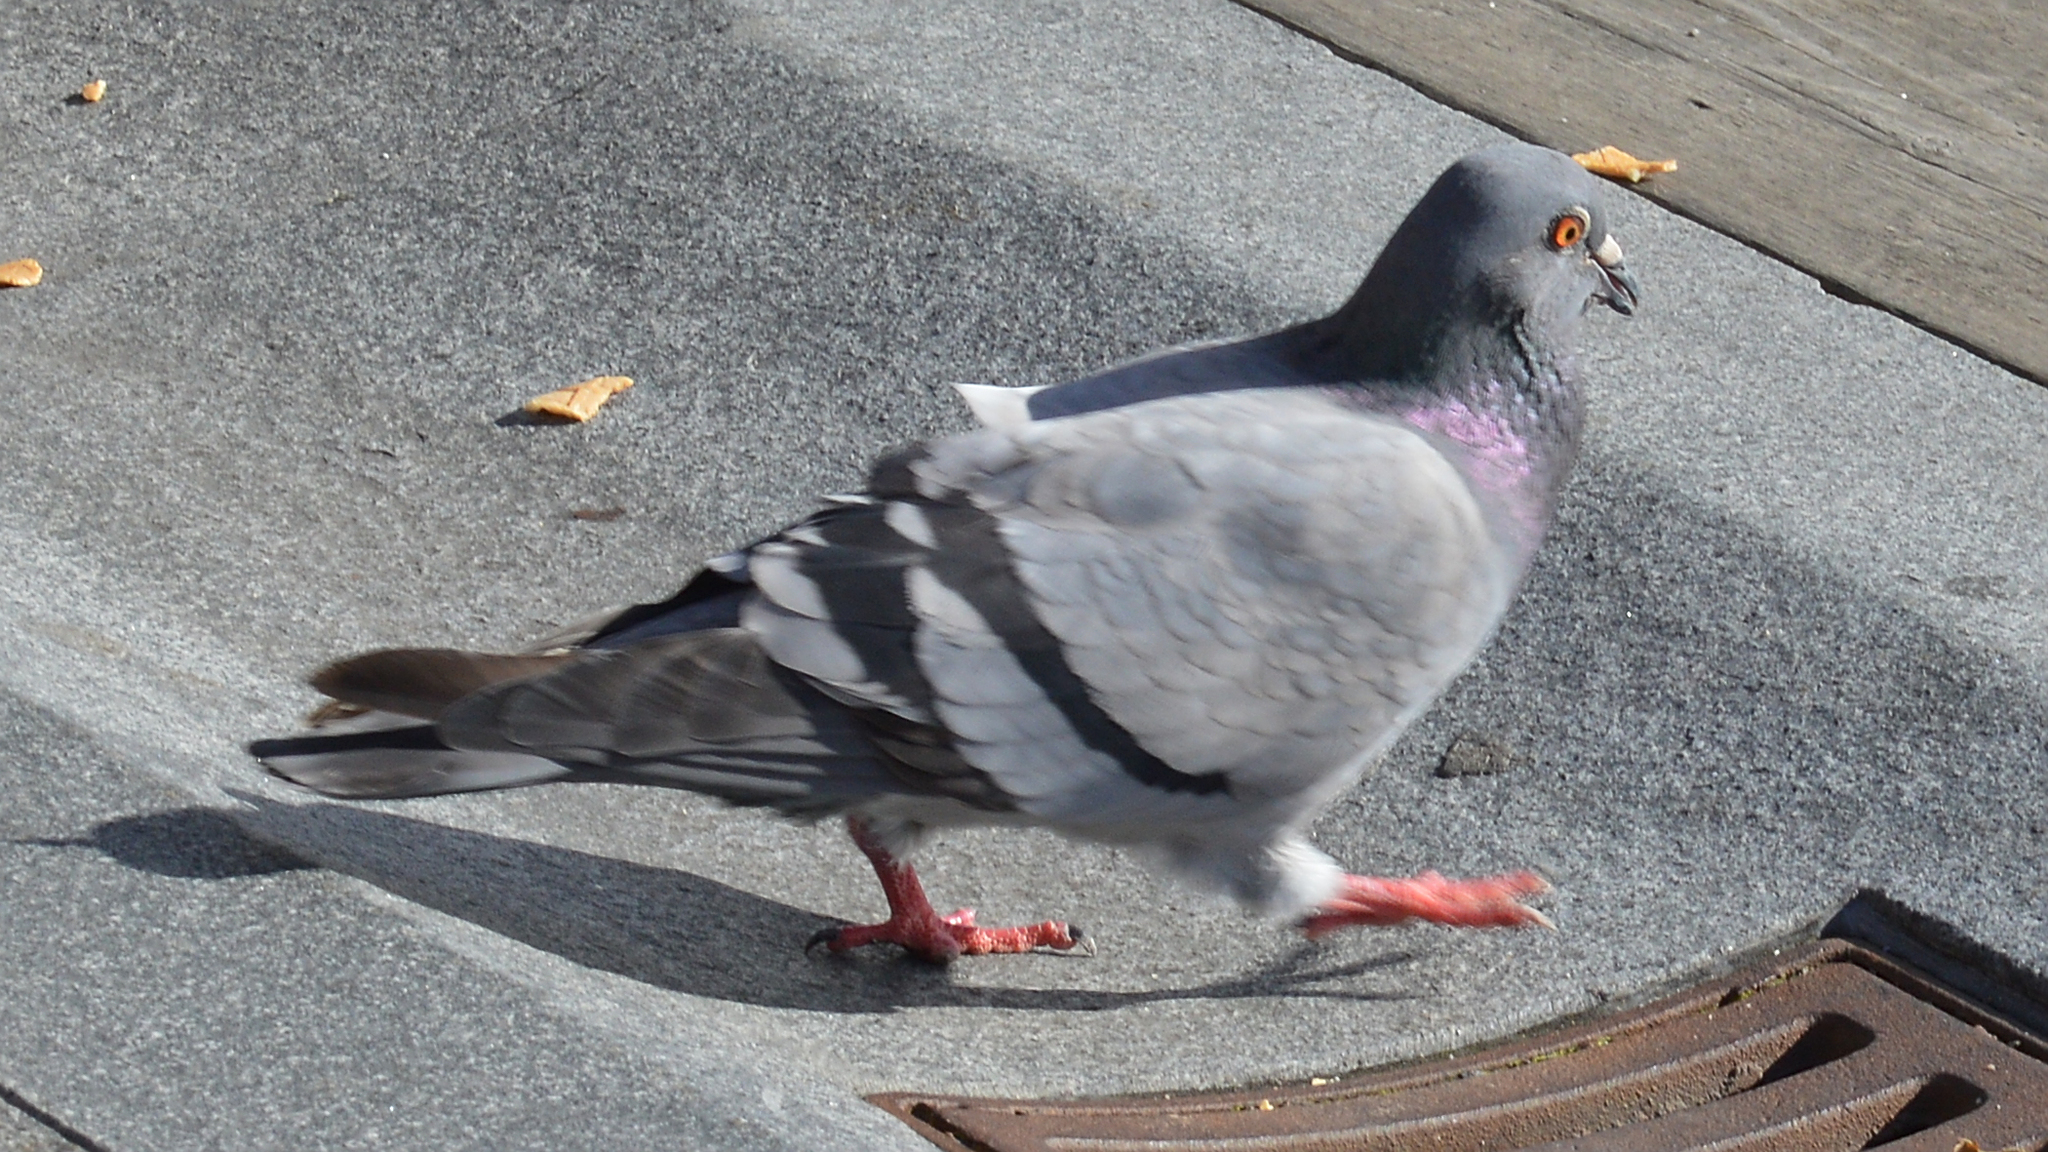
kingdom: Animalia
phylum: Chordata
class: Aves
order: Columbiformes
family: Columbidae
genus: Columba
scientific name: Columba livia
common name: Rock pigeon
